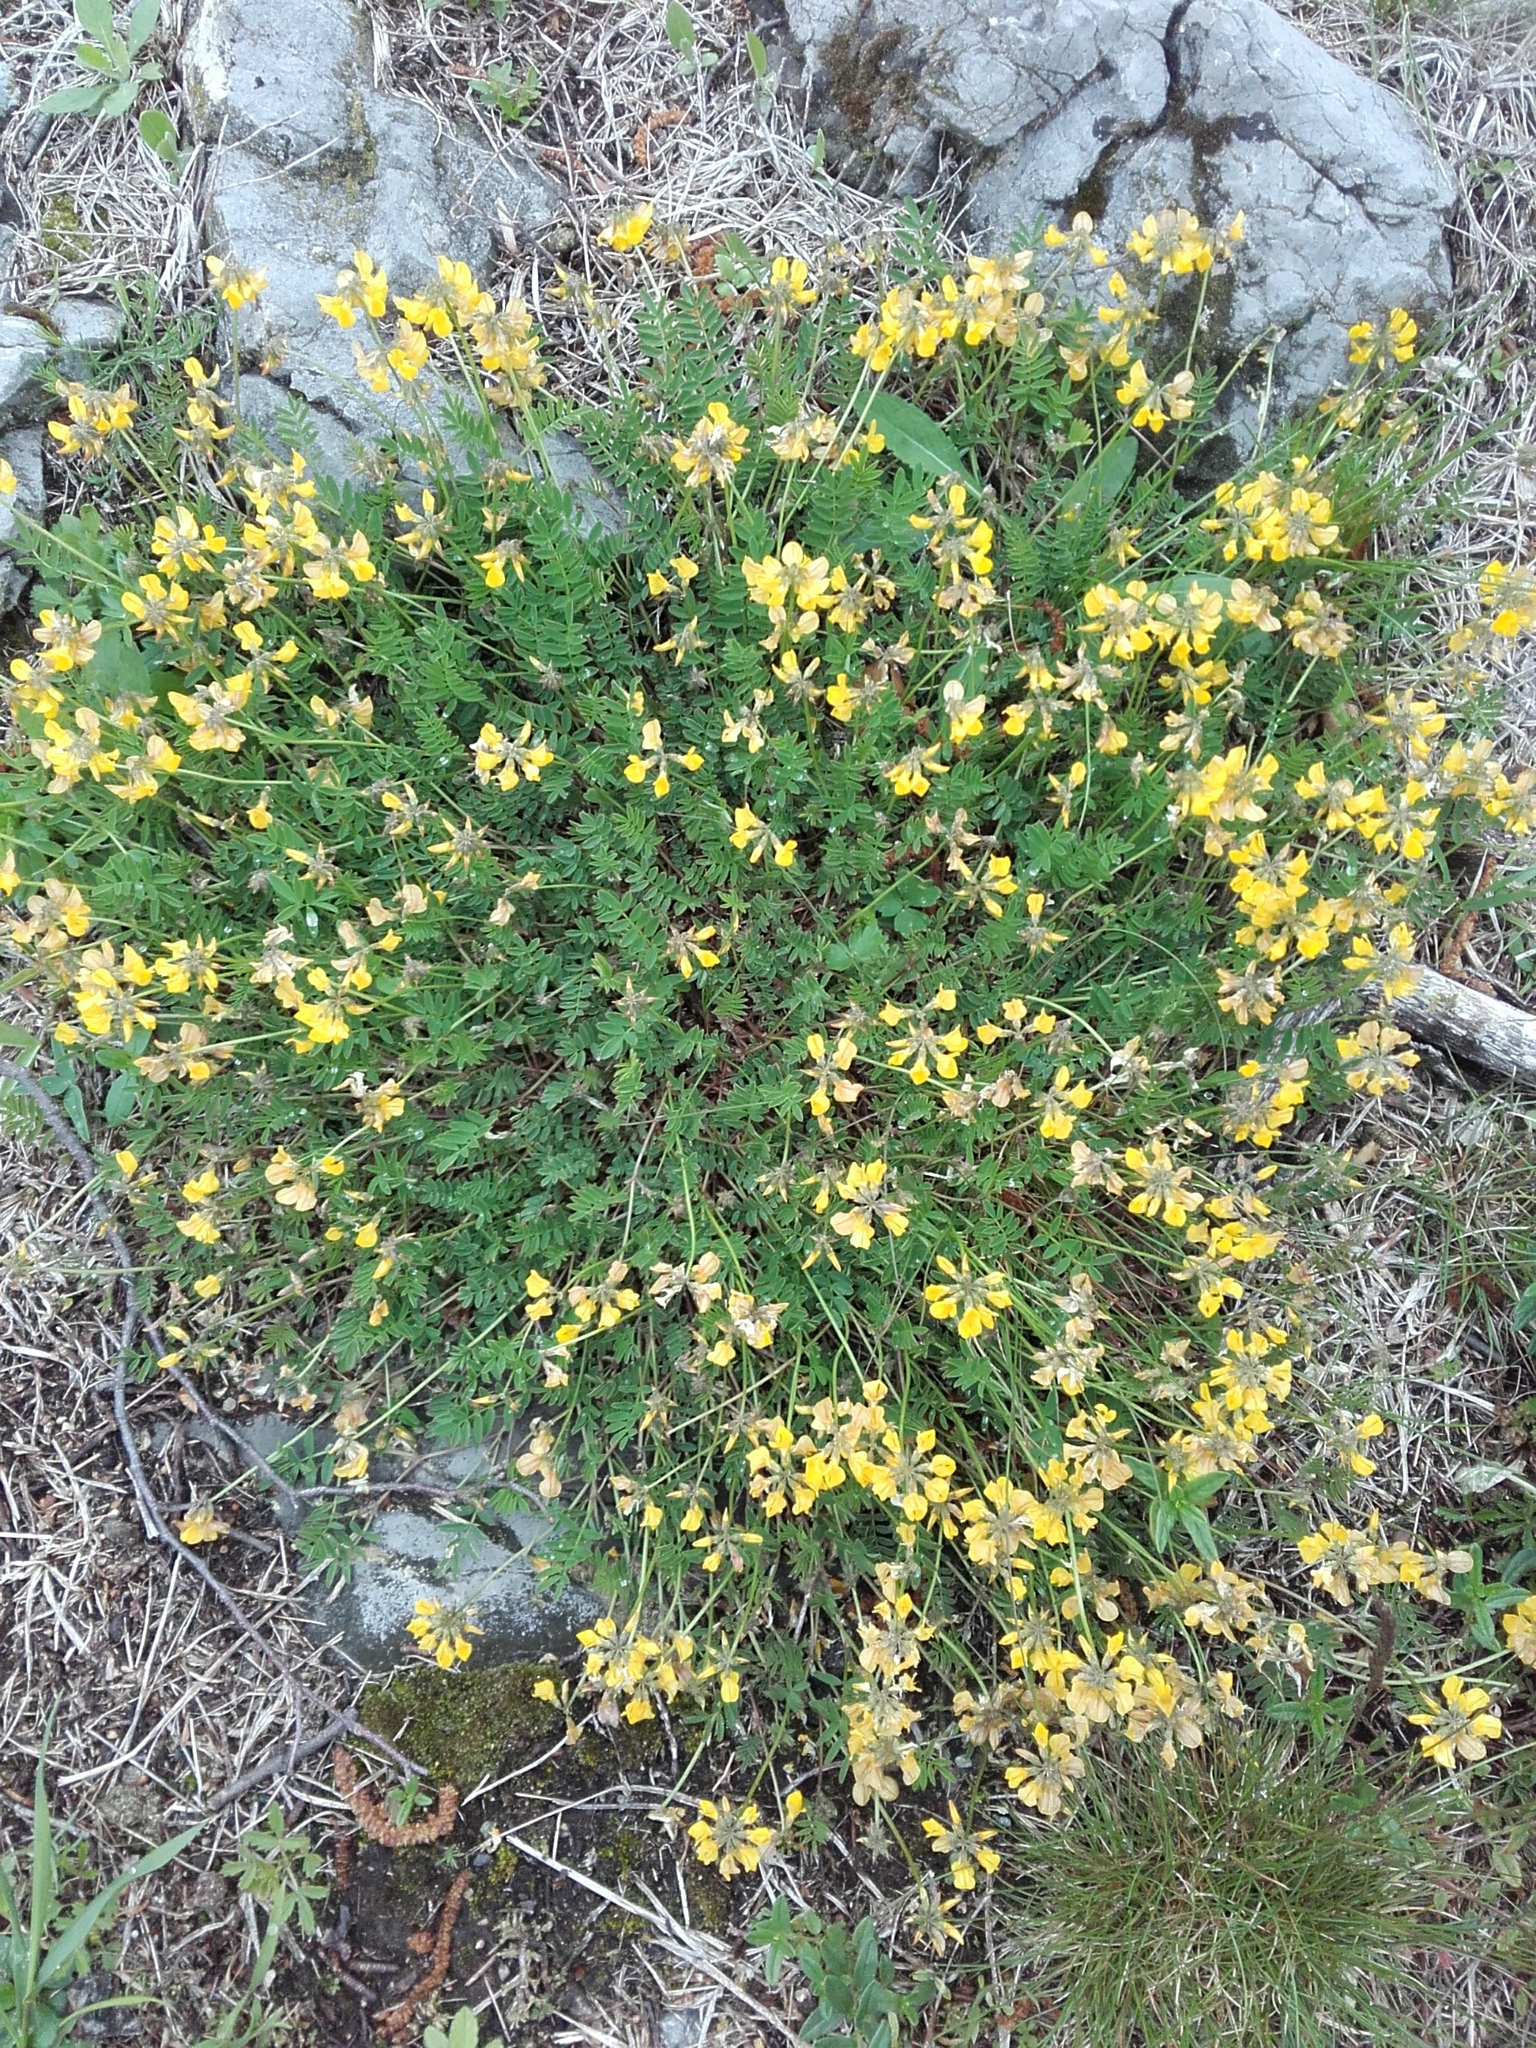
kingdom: Plantae
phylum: Tracheophyta
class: Magnoliopsida
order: Fabales
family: Fabaceae
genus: Hippocrepis
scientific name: Hippocrepis comosa
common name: Horseshoe vetch
